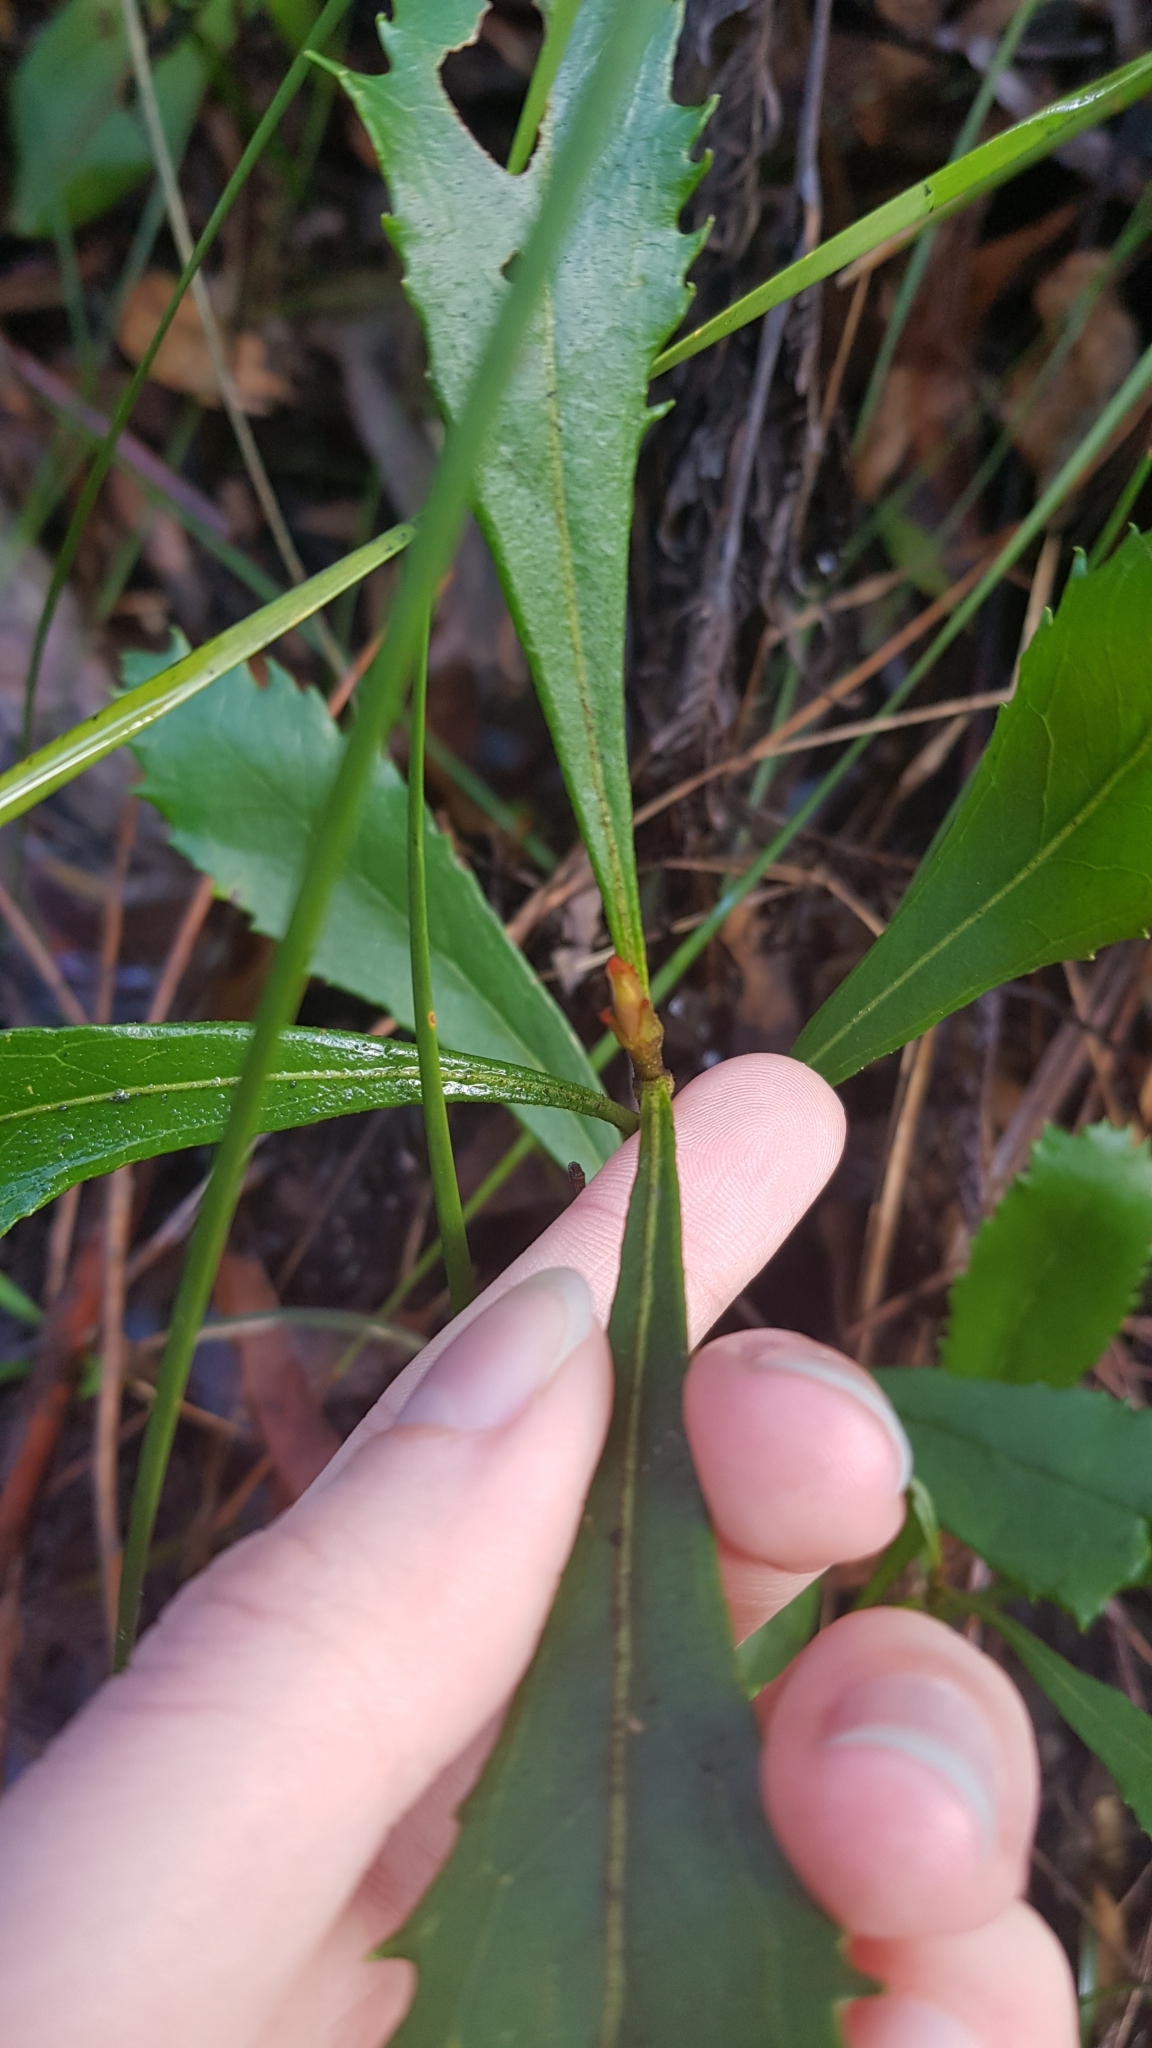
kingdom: Plantae
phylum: Tracheophyta
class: Magnoliopsida
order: Proteales
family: Proteaceae
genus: Telopea
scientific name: Telopea speciosissima
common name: New south wales waratah
